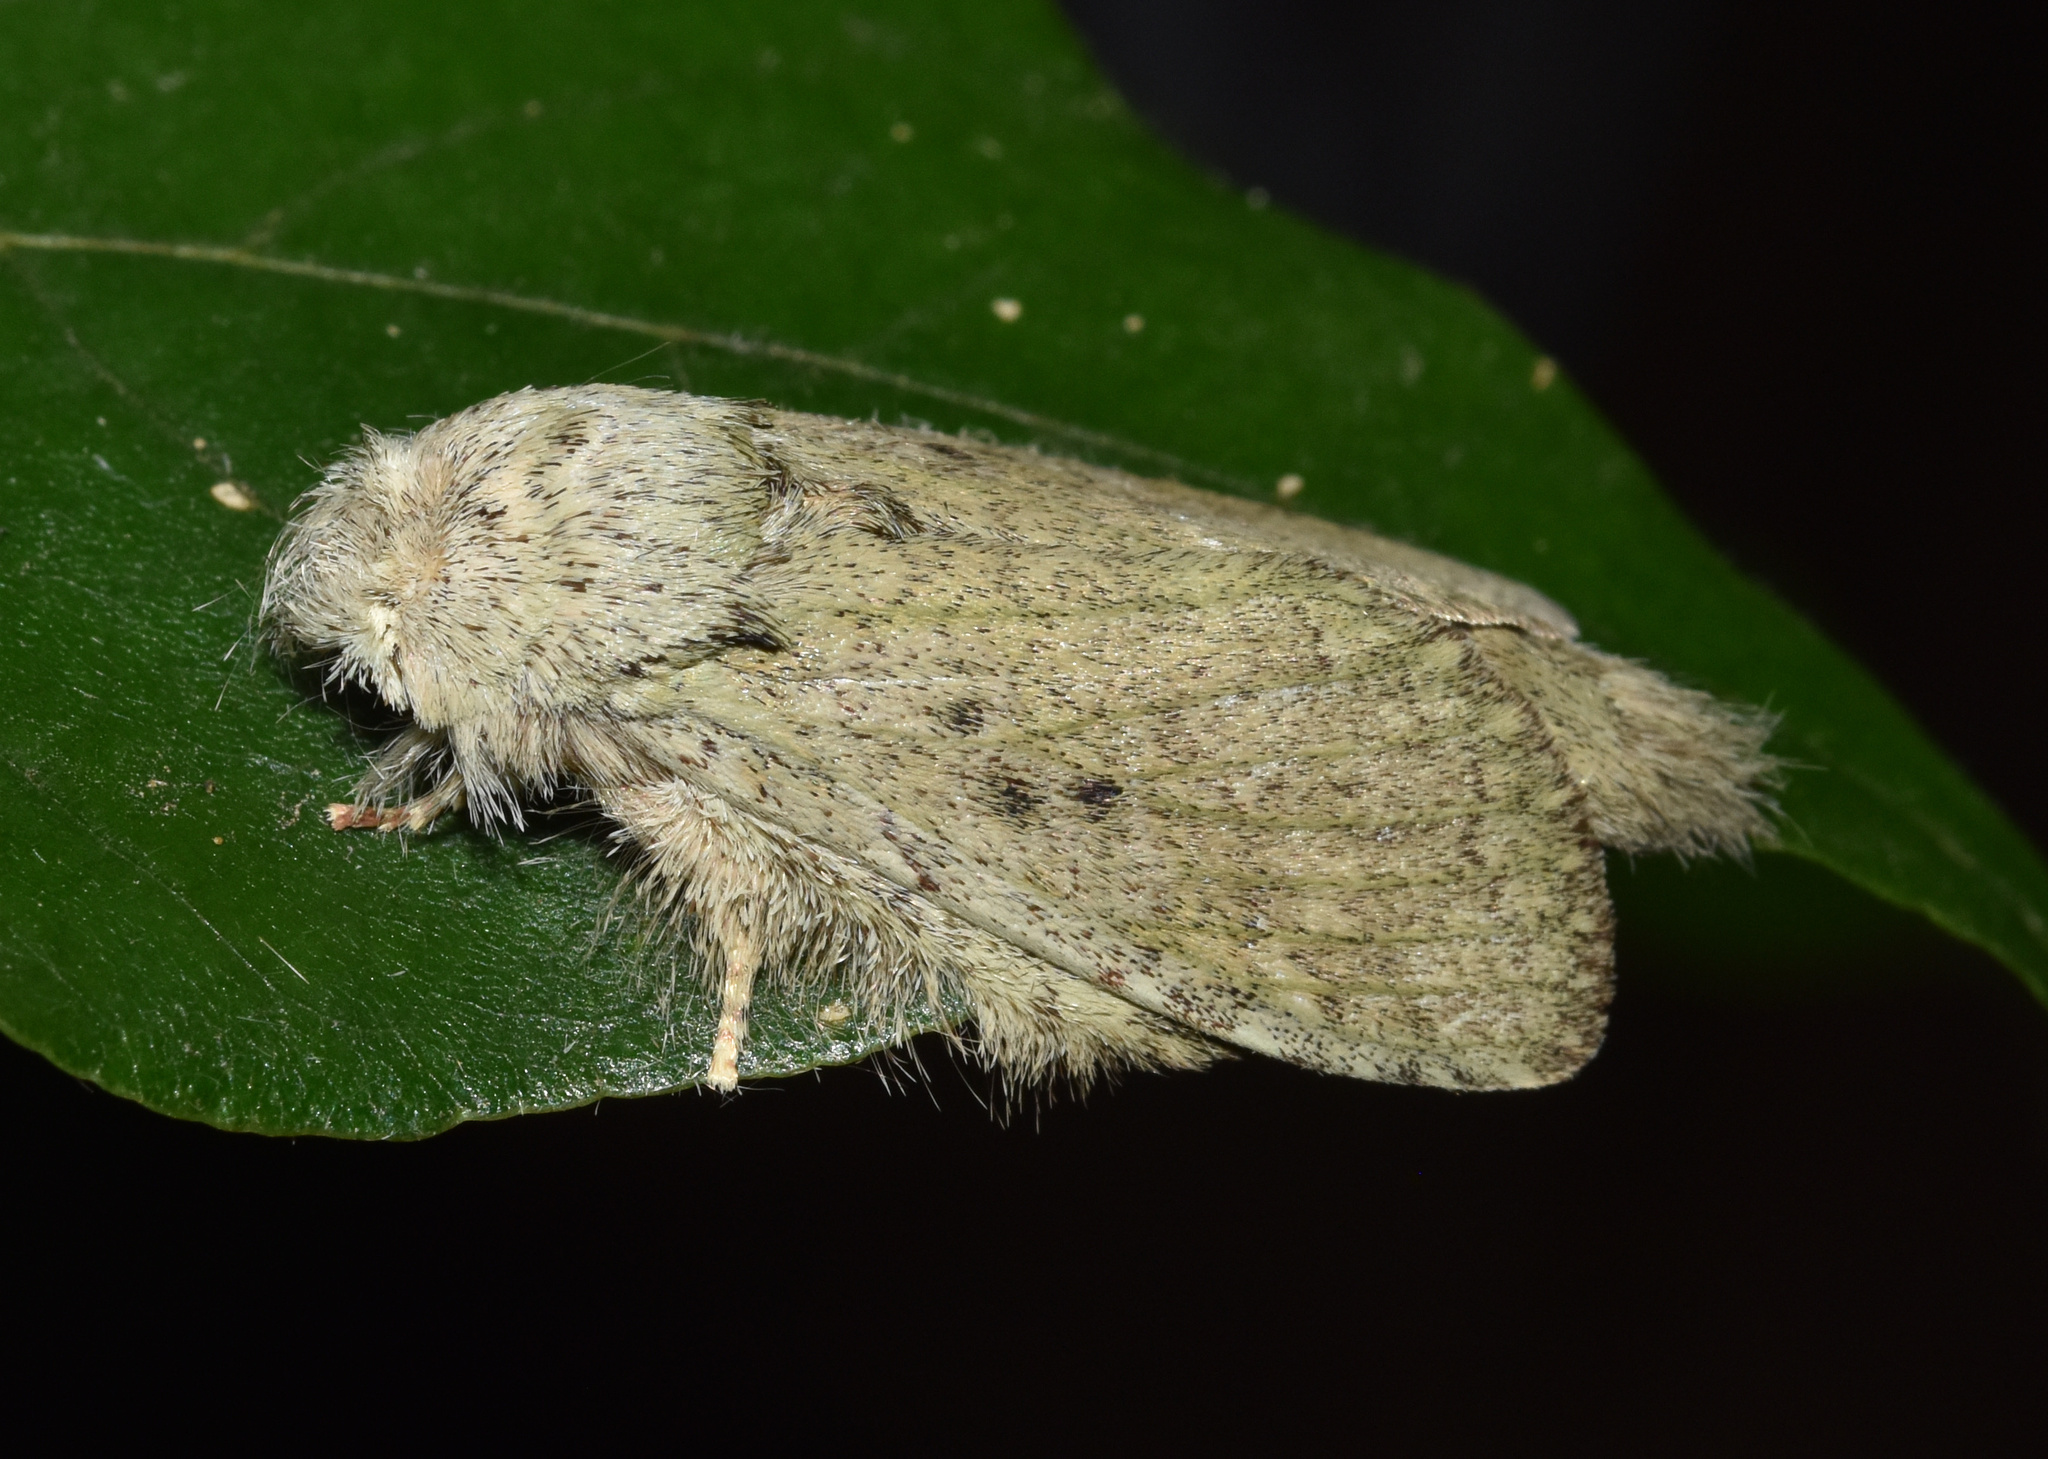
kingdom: Animalia
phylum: Arthropoda
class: Insecta
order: Lepidoptera
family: Notodontidae
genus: Desmeocraera
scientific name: Desmeocraera interpellatrix
